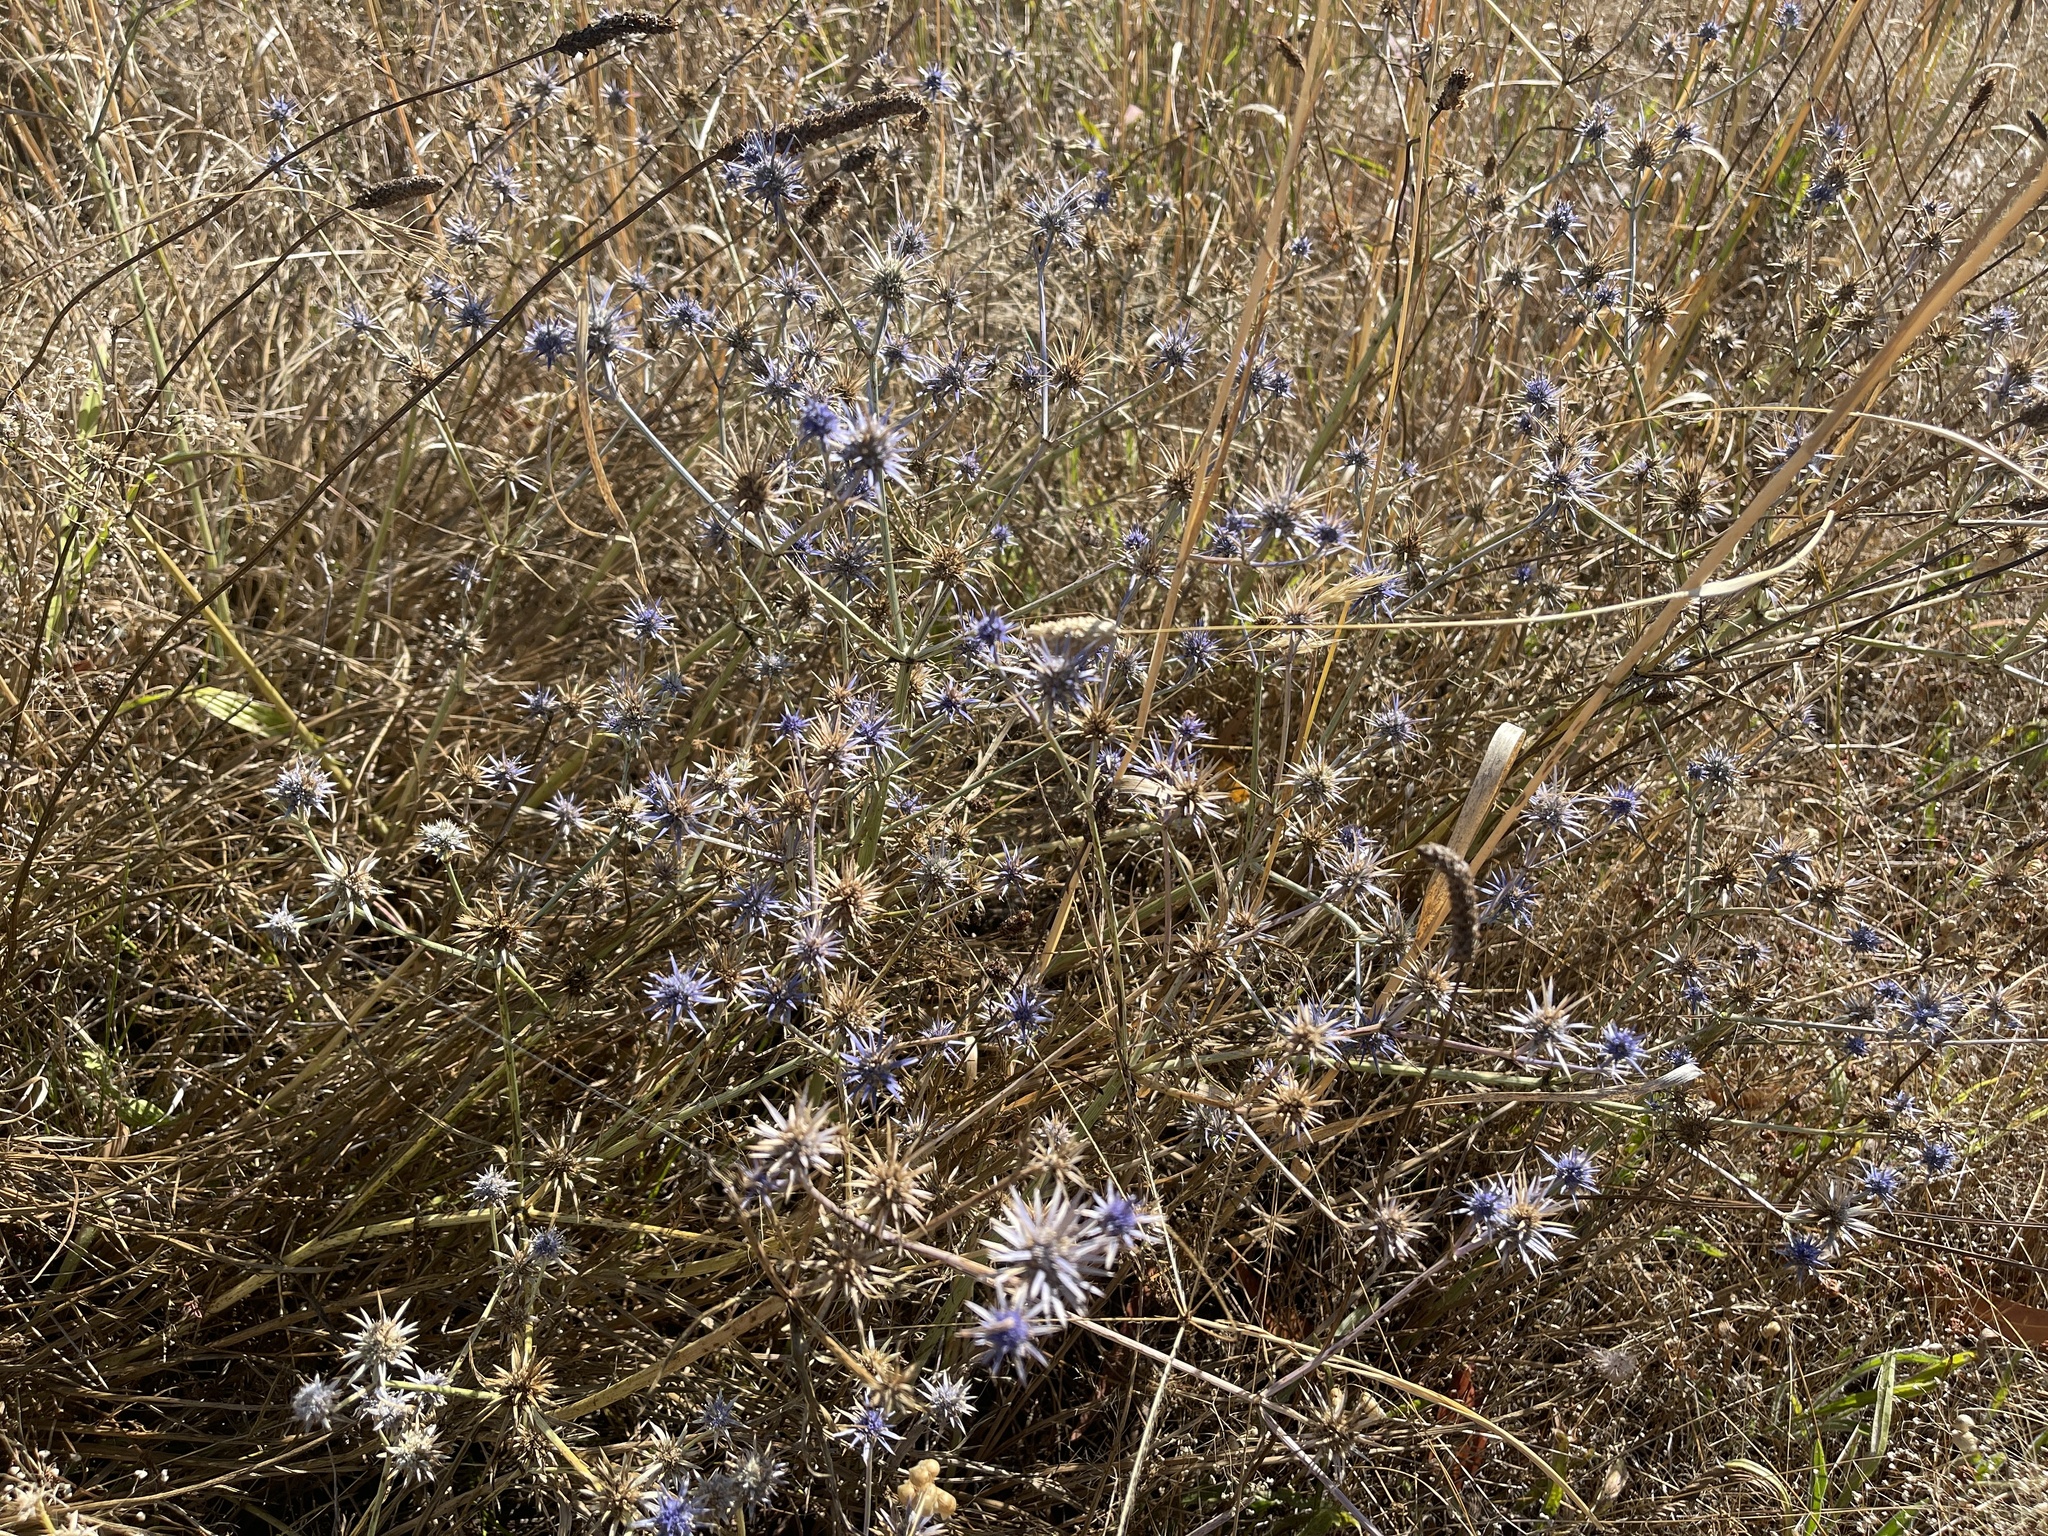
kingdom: Plantae
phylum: Tracheophyta
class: Magnoliopsida
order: Apiales
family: Apiaceae
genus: Eryngium
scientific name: Eryngium ovinum
